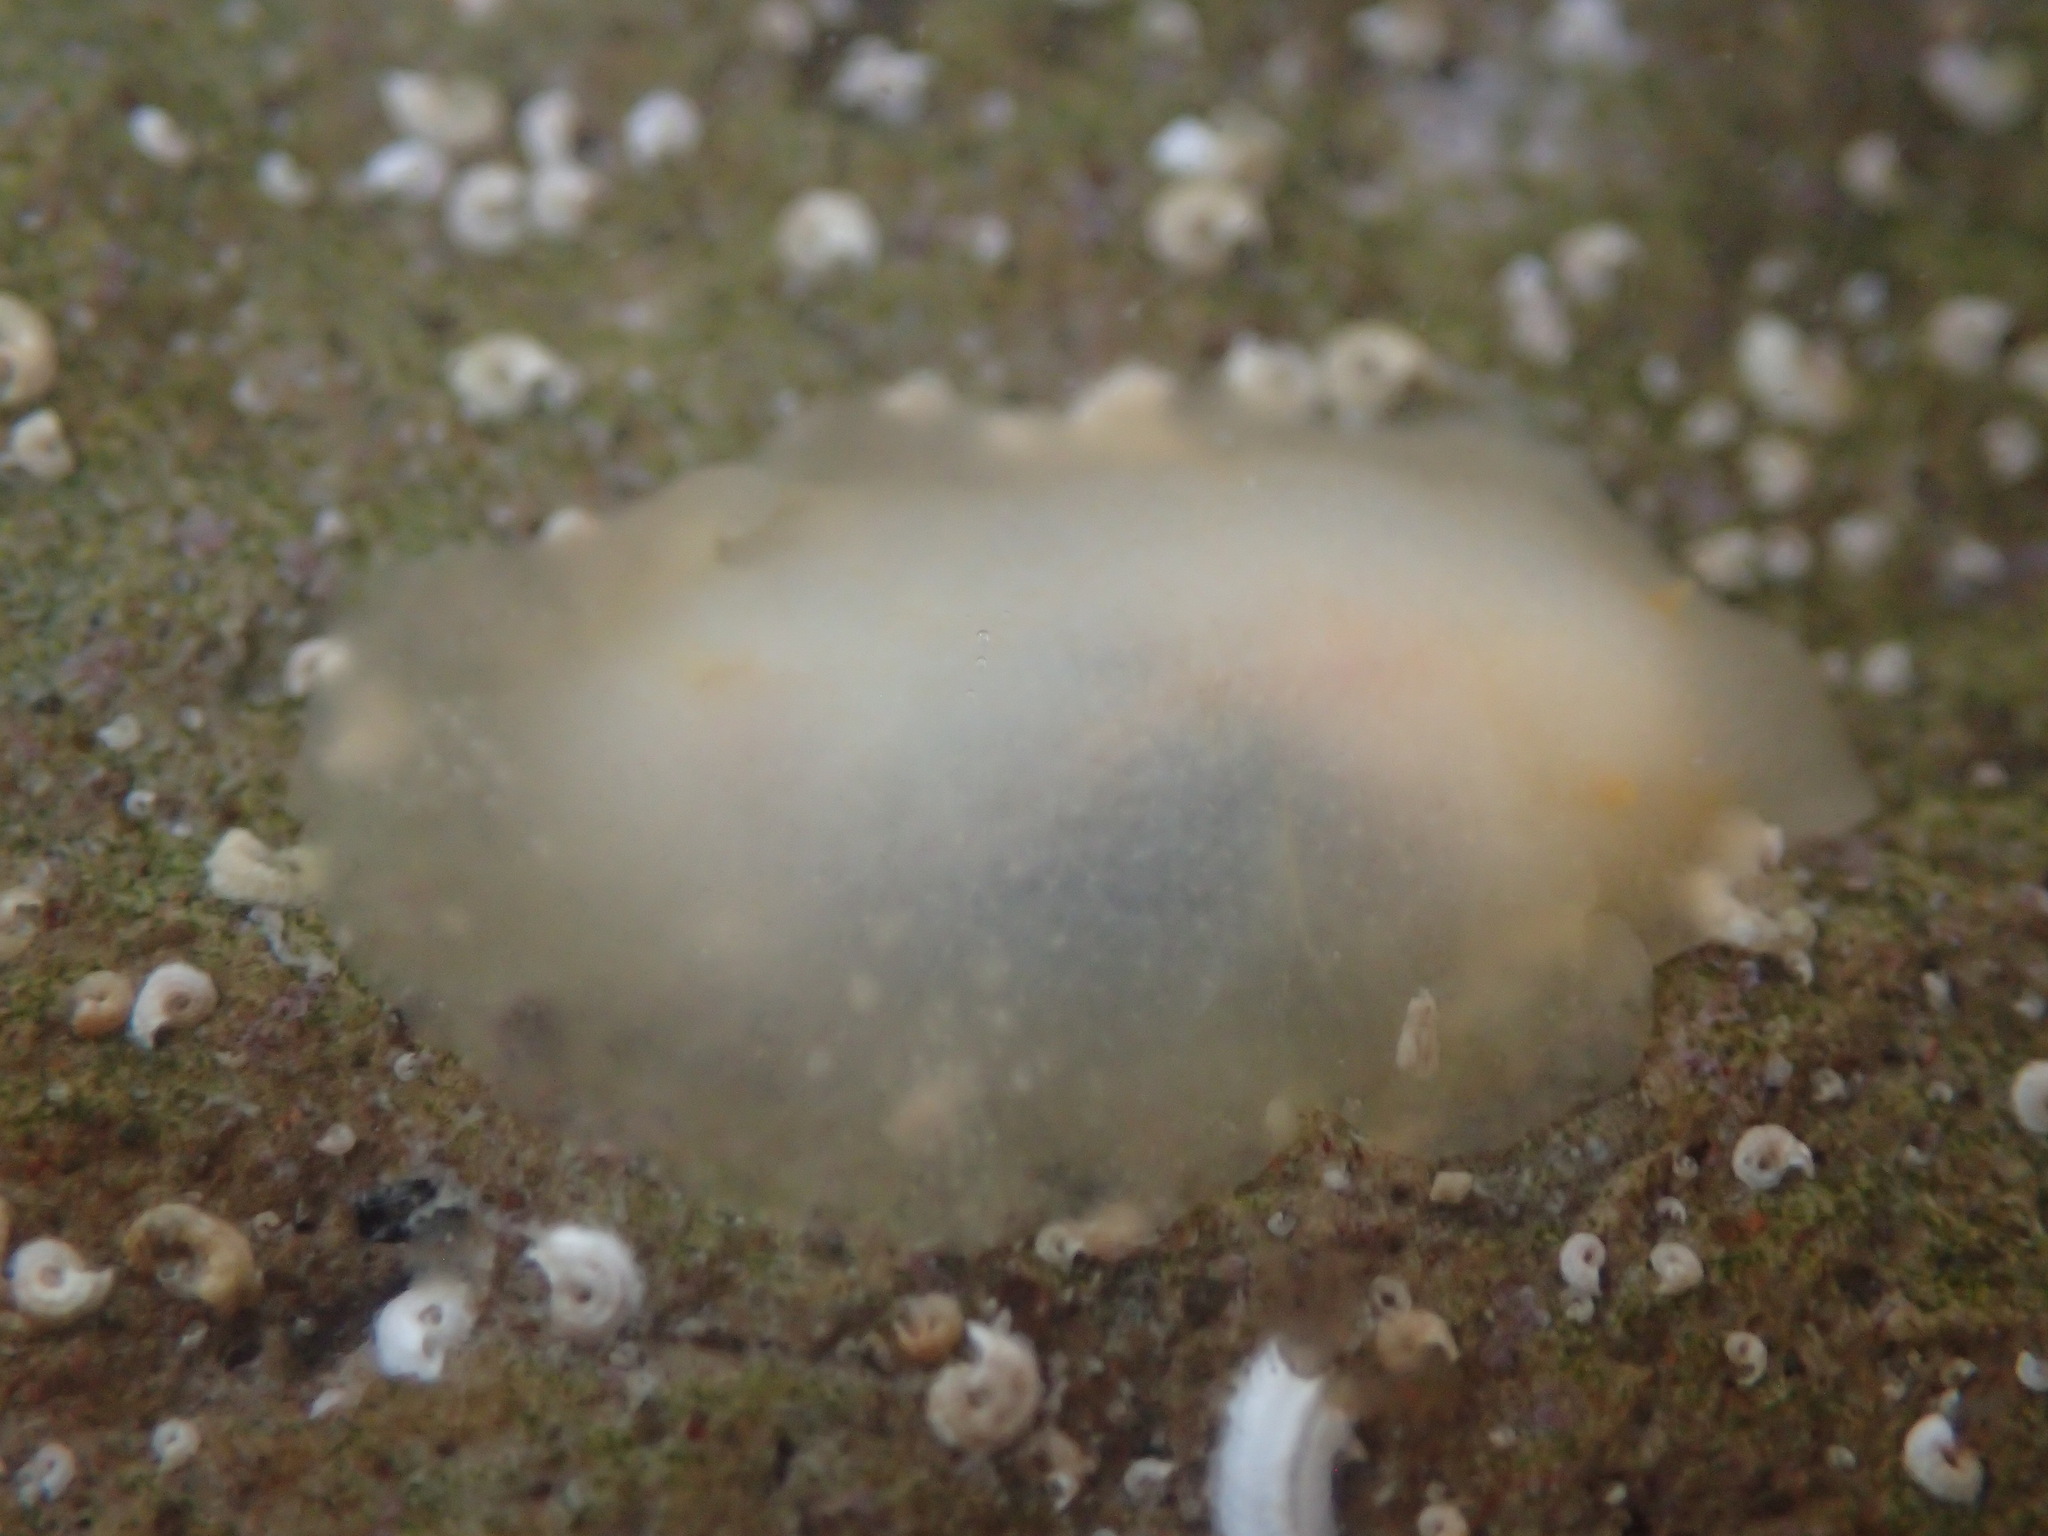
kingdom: Animalia
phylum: Mollusca
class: Gastropoda
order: Nudibranchia
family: Dorididae
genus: Conualevia
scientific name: Conualevia marcusi
